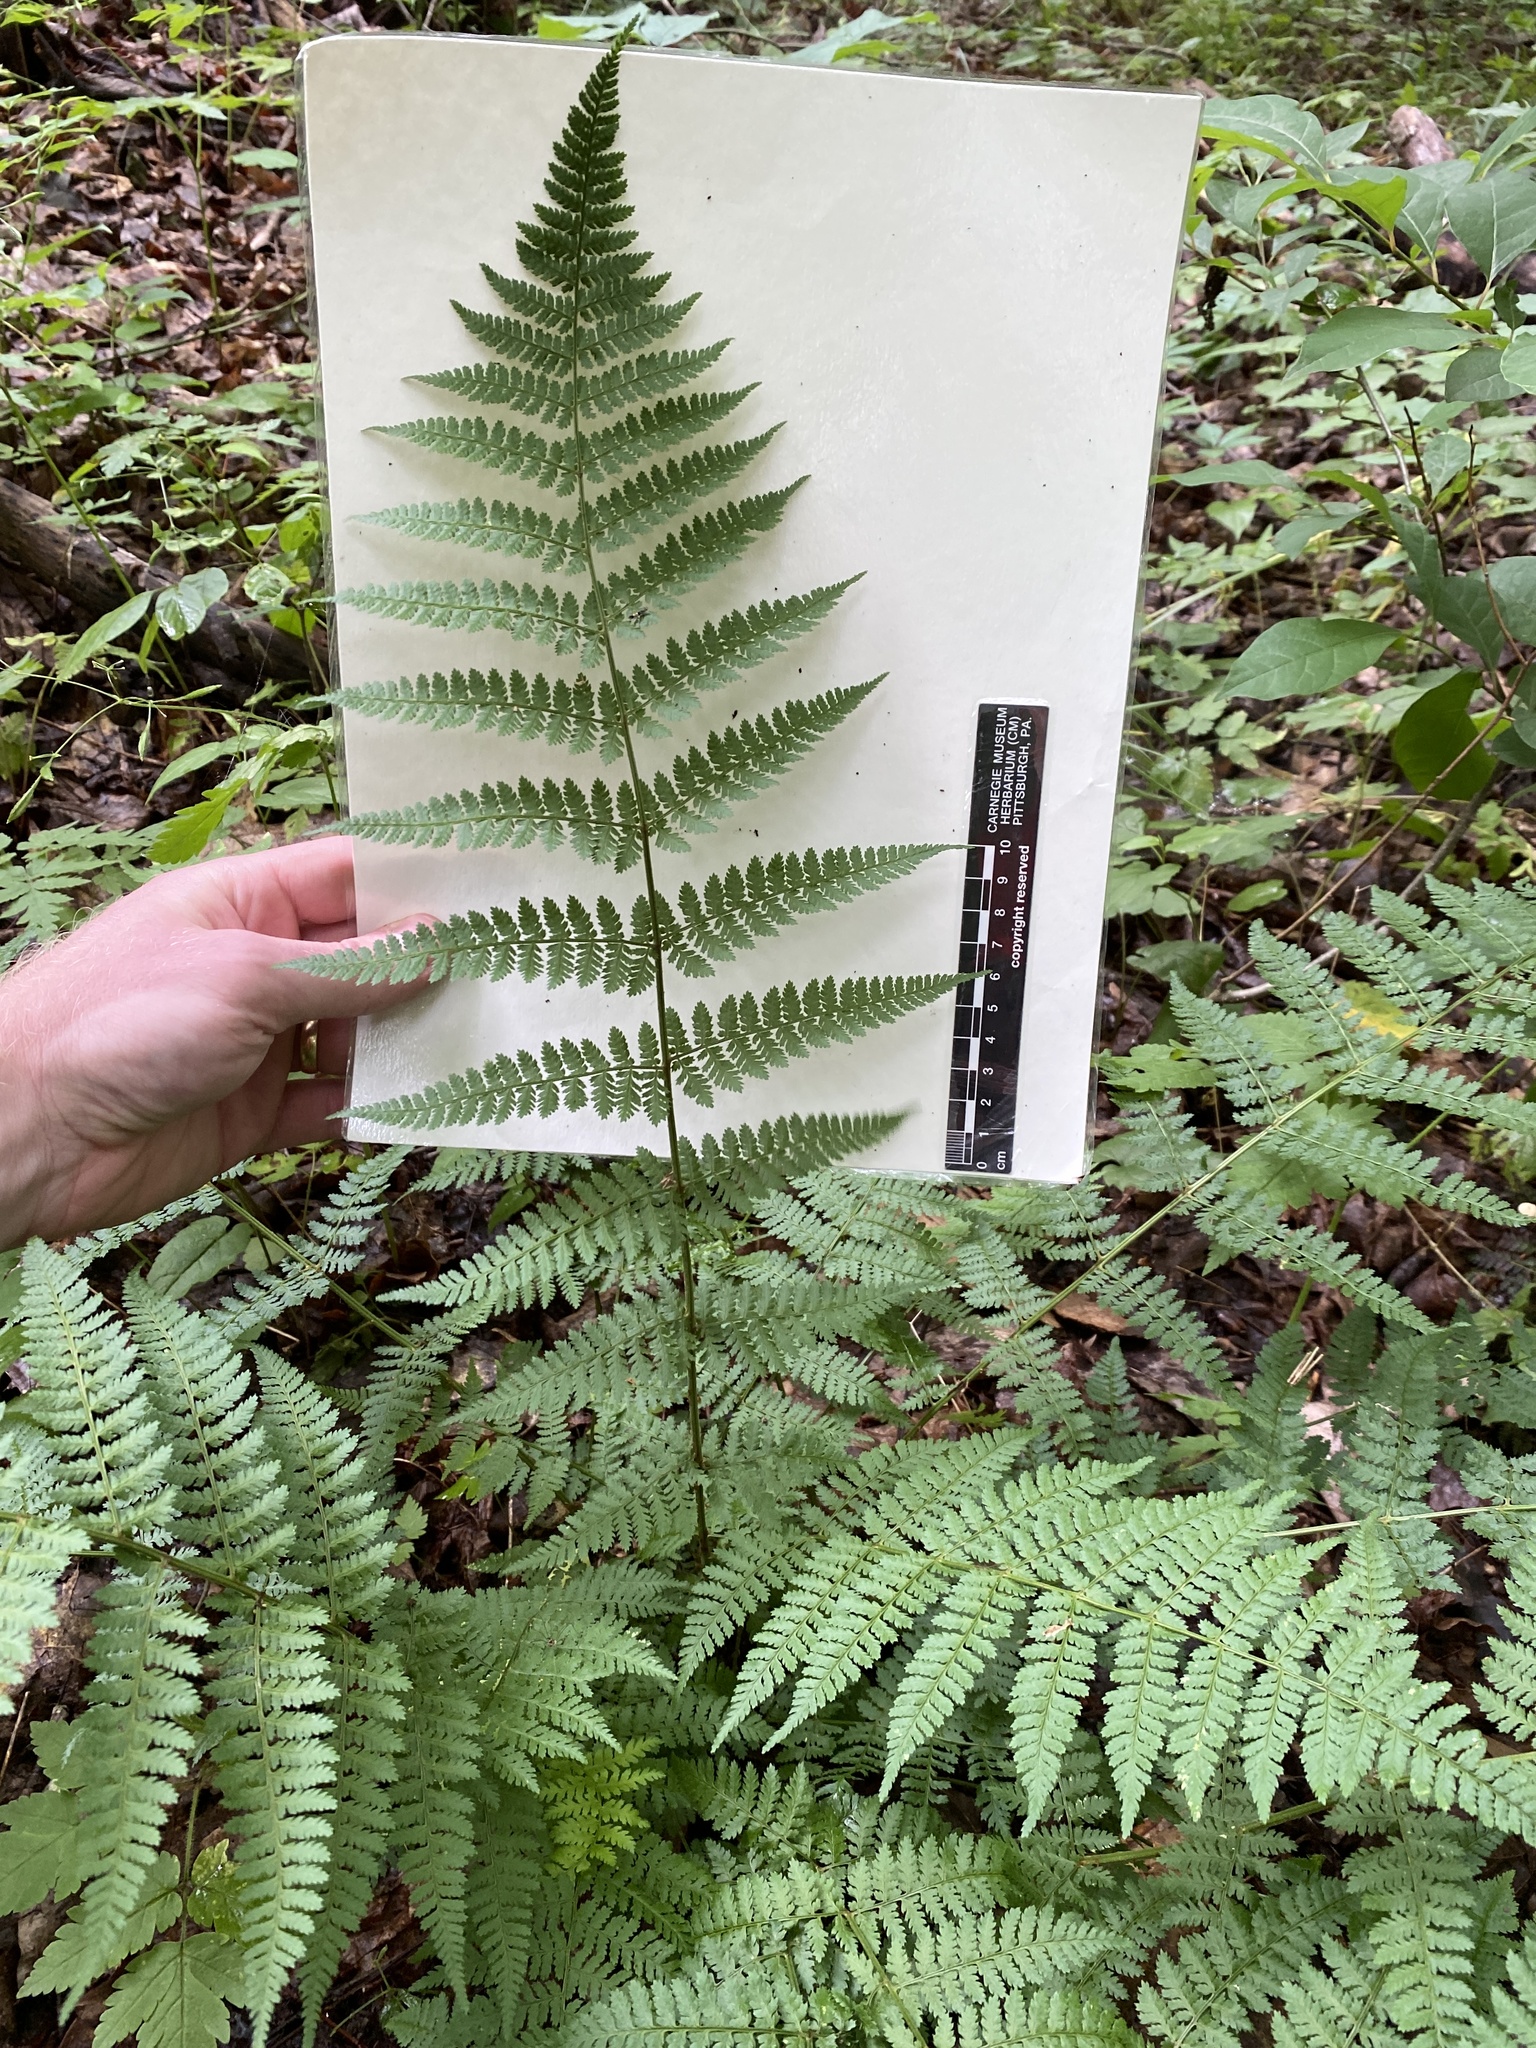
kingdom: Plantae
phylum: Tracheophyta
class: Polypodiopsida
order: Polypodiales
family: Dryopteridaceae
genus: Dryopteris
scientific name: Dryopteris intermedia
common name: Evergreen wood fern
